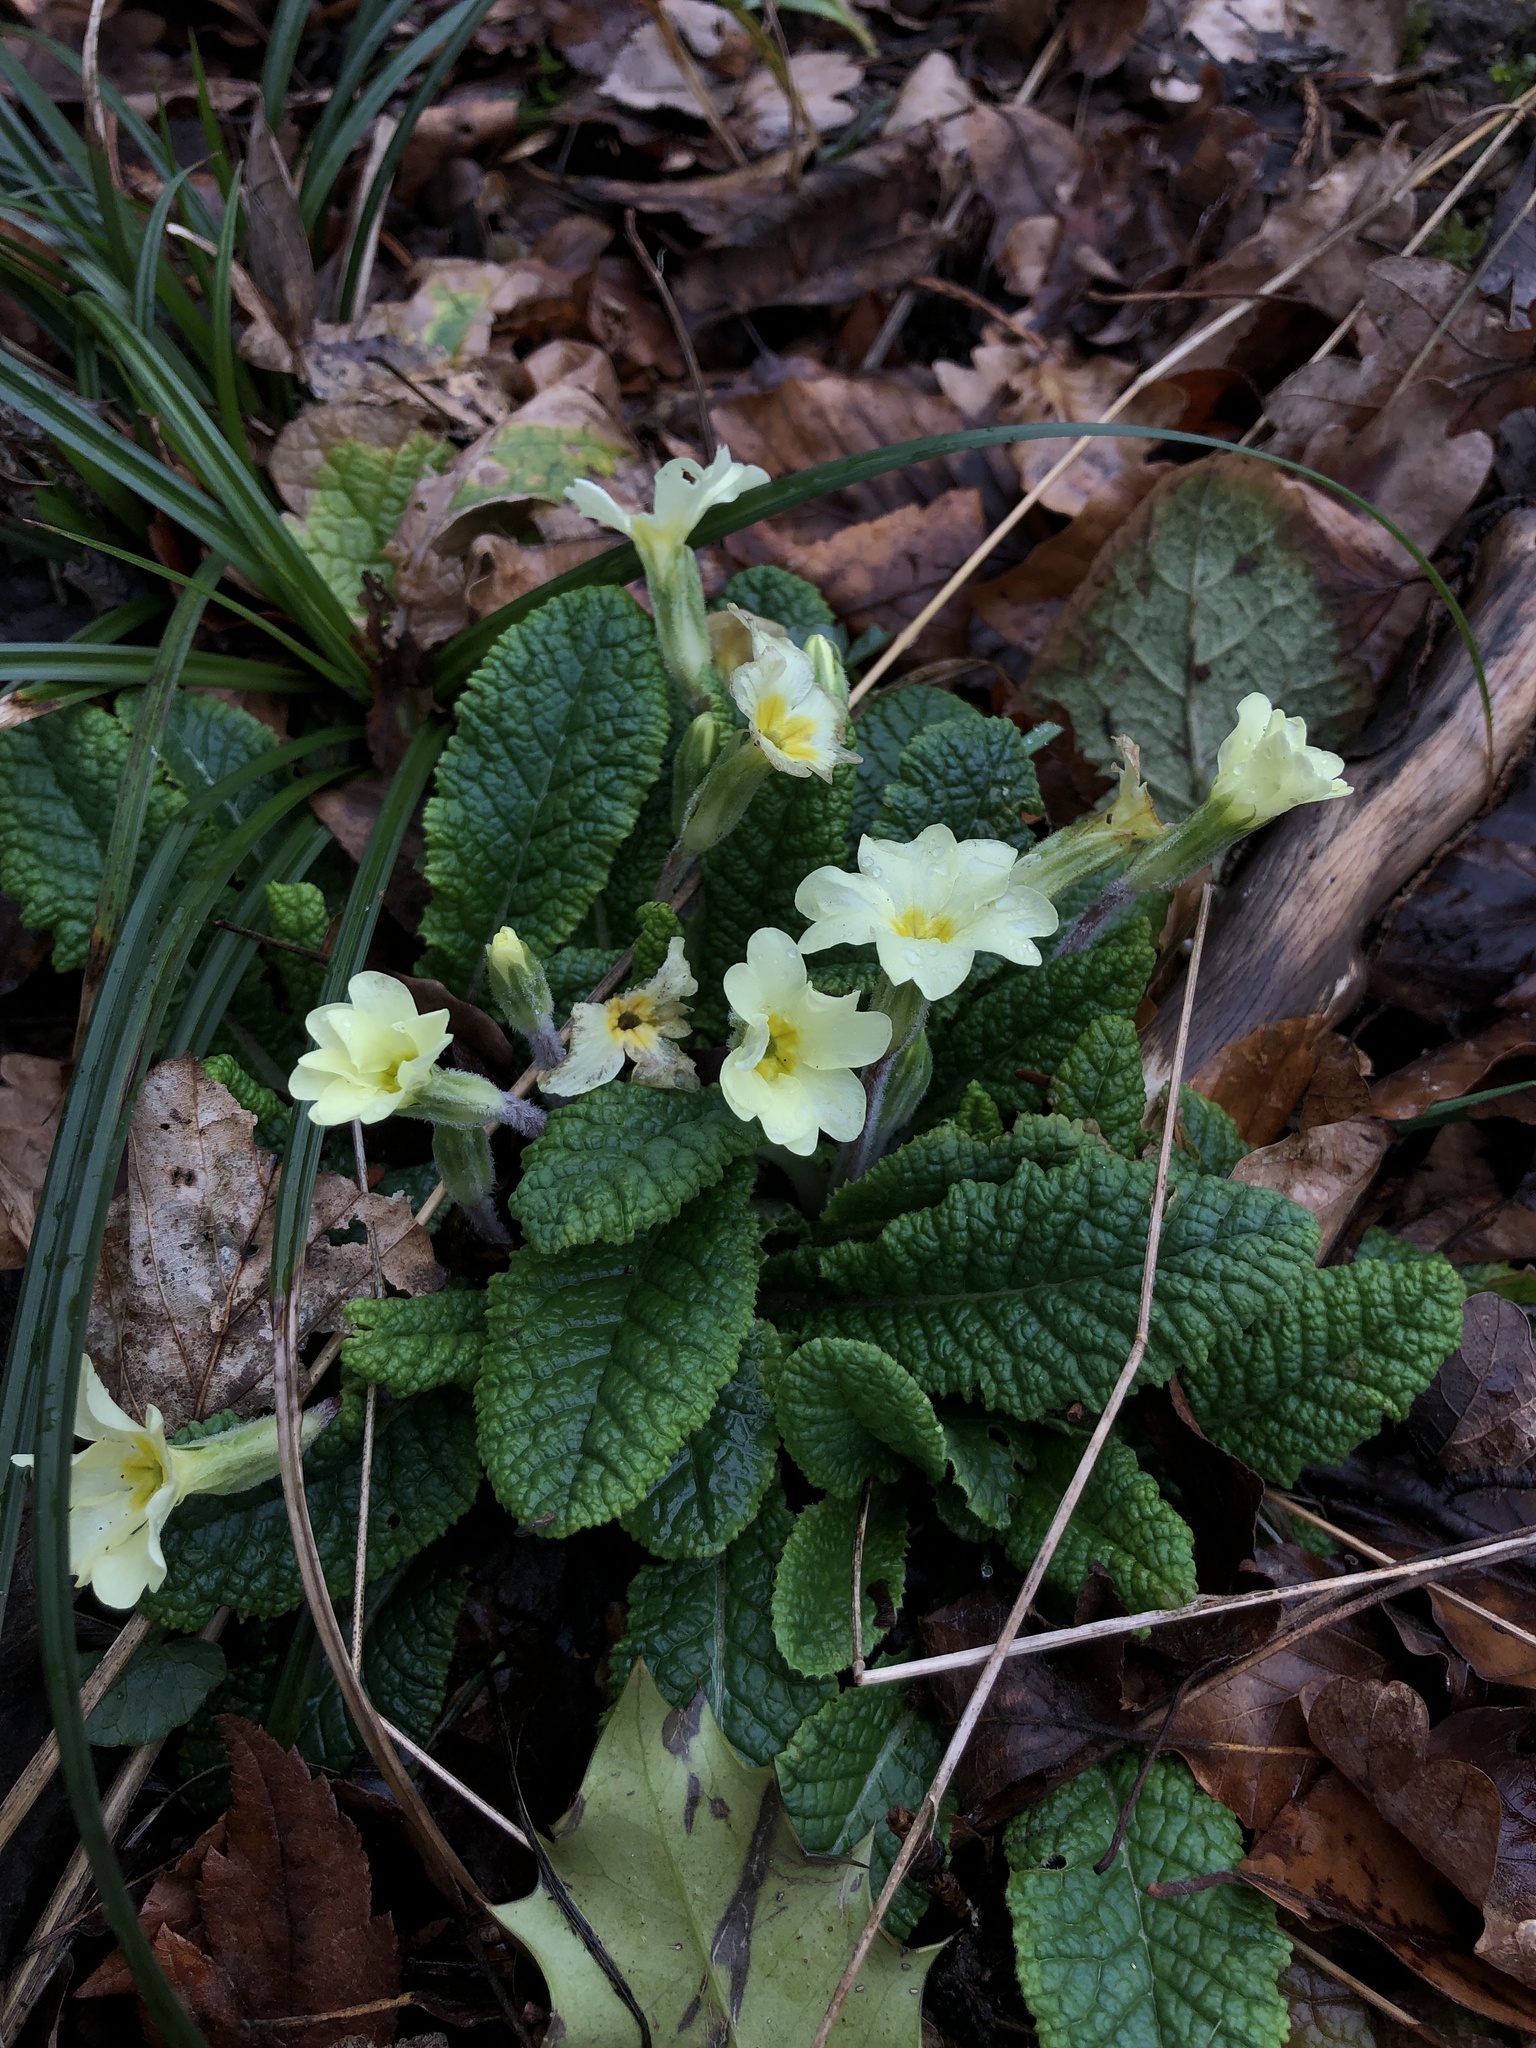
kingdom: Plantae
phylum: Tracheophyta
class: Magnoliopsida
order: Ericales
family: Primulaceae
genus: Primula
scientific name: Primula vulgaris
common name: Primrose
